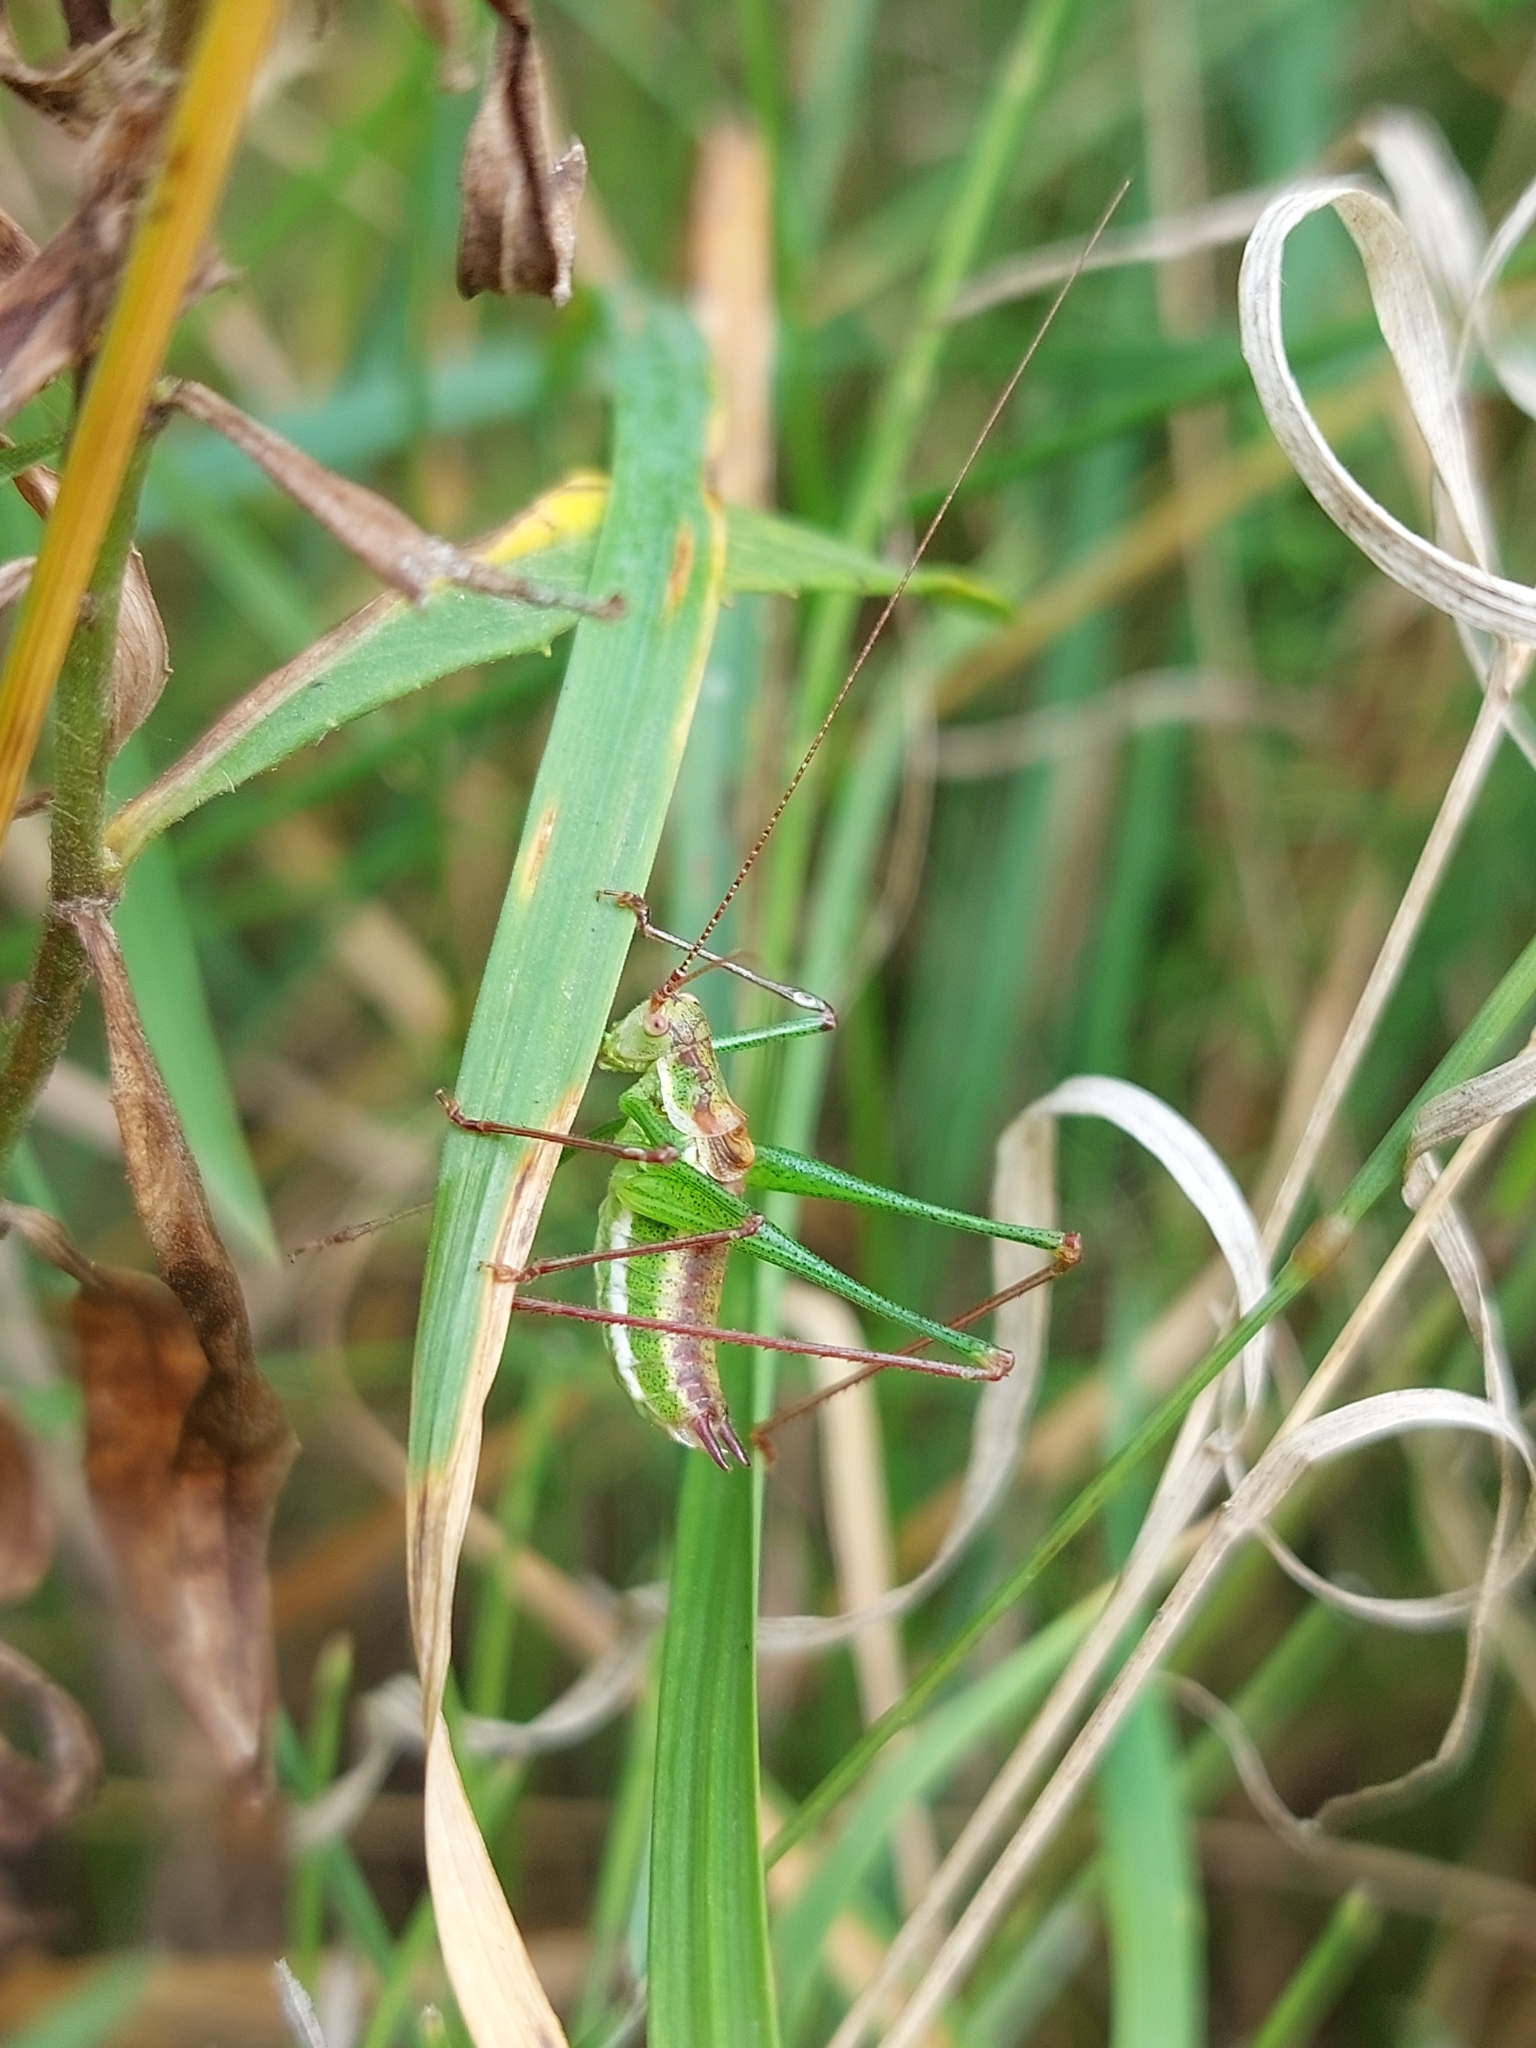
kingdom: Animalia
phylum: Arthropoda
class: Insecta
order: Orthoptera
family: Tettigoniidae
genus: Leptophyes
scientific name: Leptophyes albovittata
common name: Striped bush-cricket
